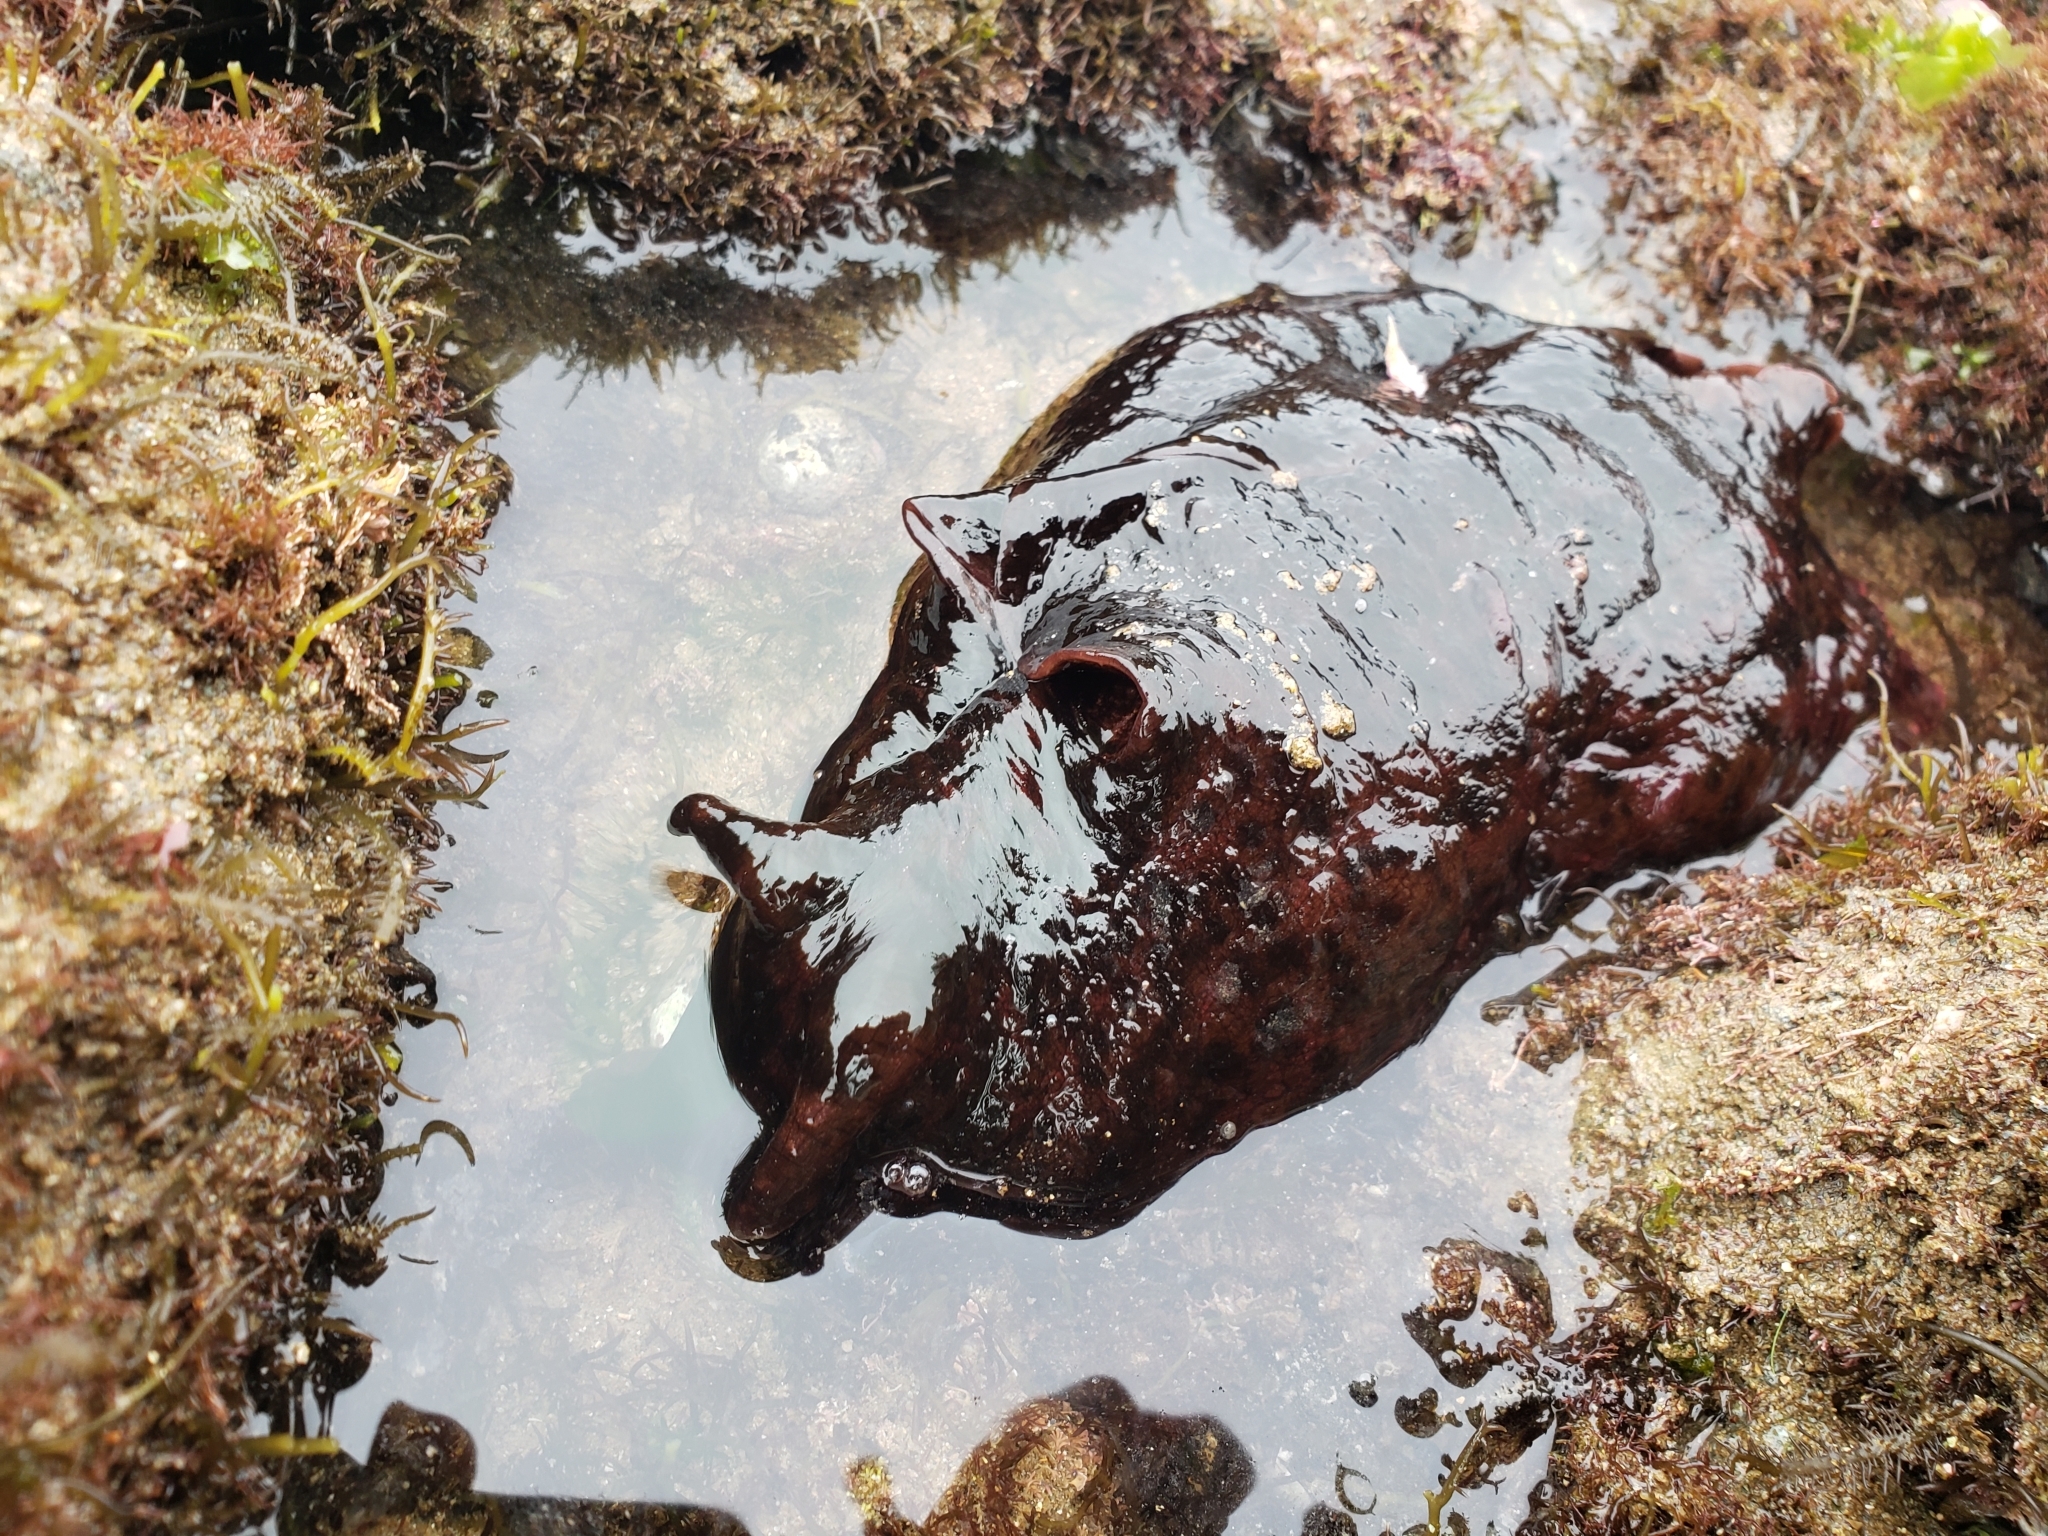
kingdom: Animalia
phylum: Mollusca
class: Gastropoda
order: Aplysiida
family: Aplysiidae
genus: Aplysia
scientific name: Aplysia californica
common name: California seahare
